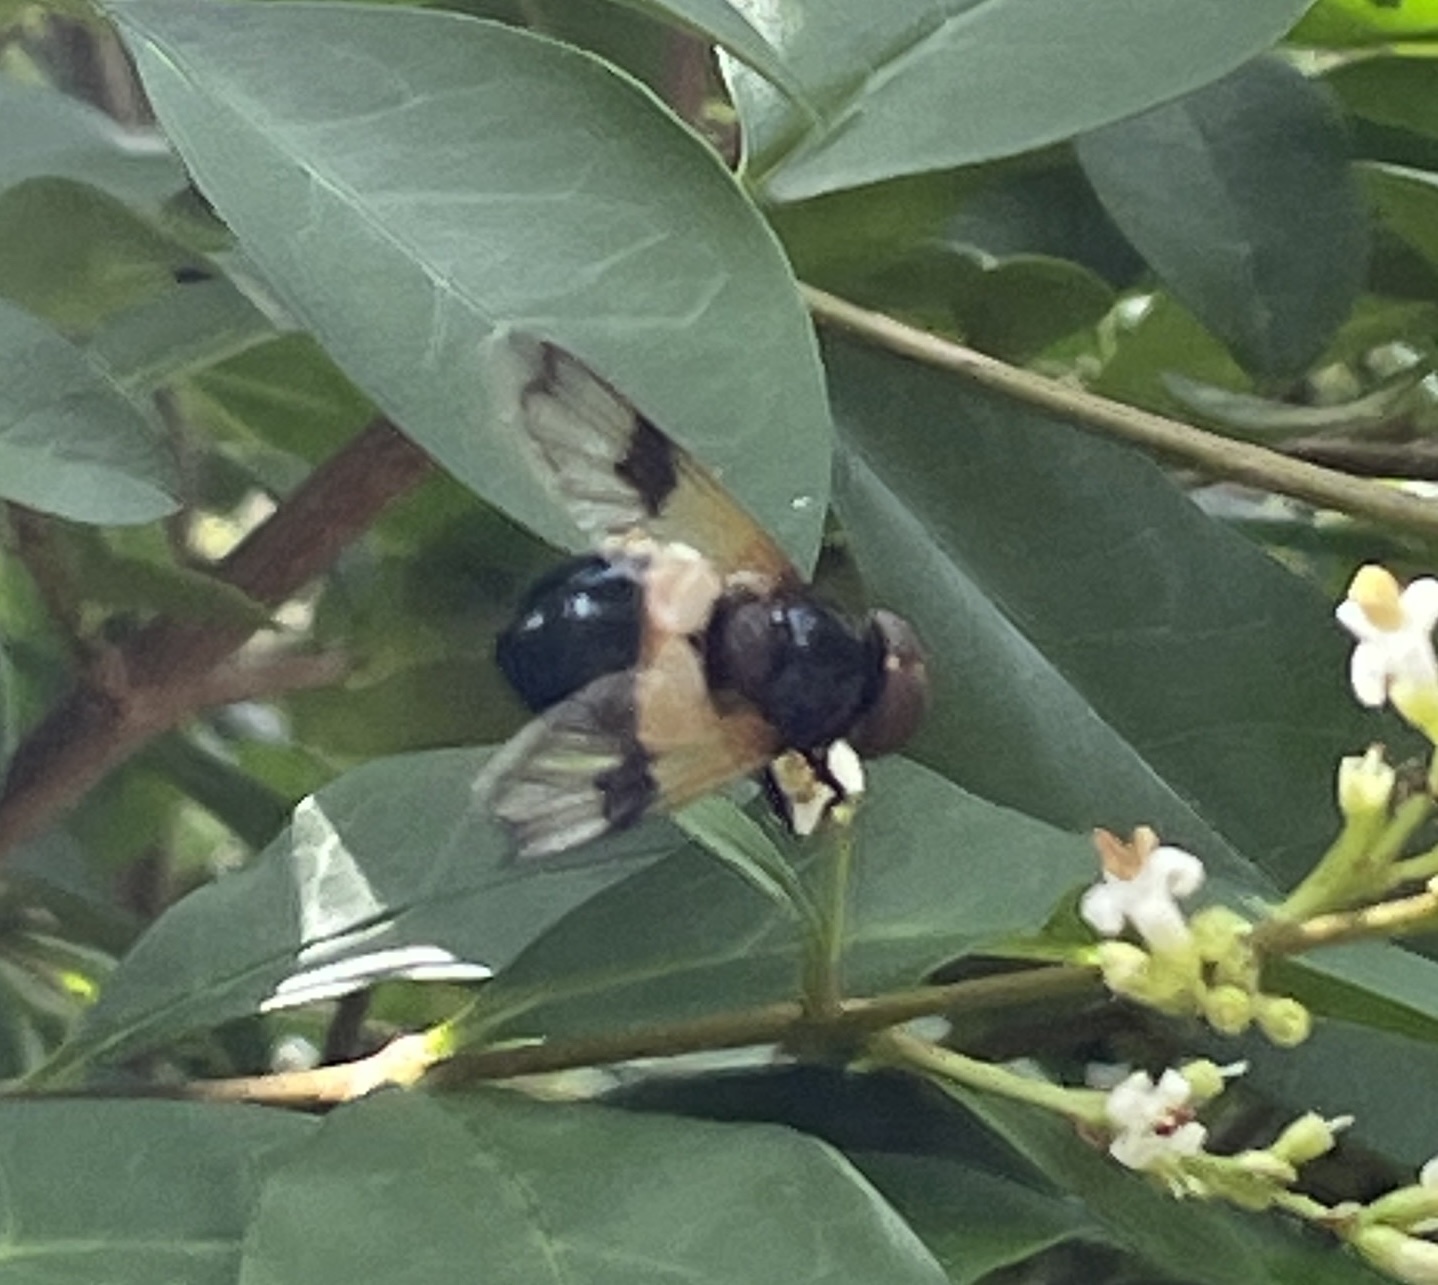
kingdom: Animalia
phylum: Arthropoda
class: Insecta
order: Diptera
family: Syrphidae
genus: Volucella
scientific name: Volucella pellucens
